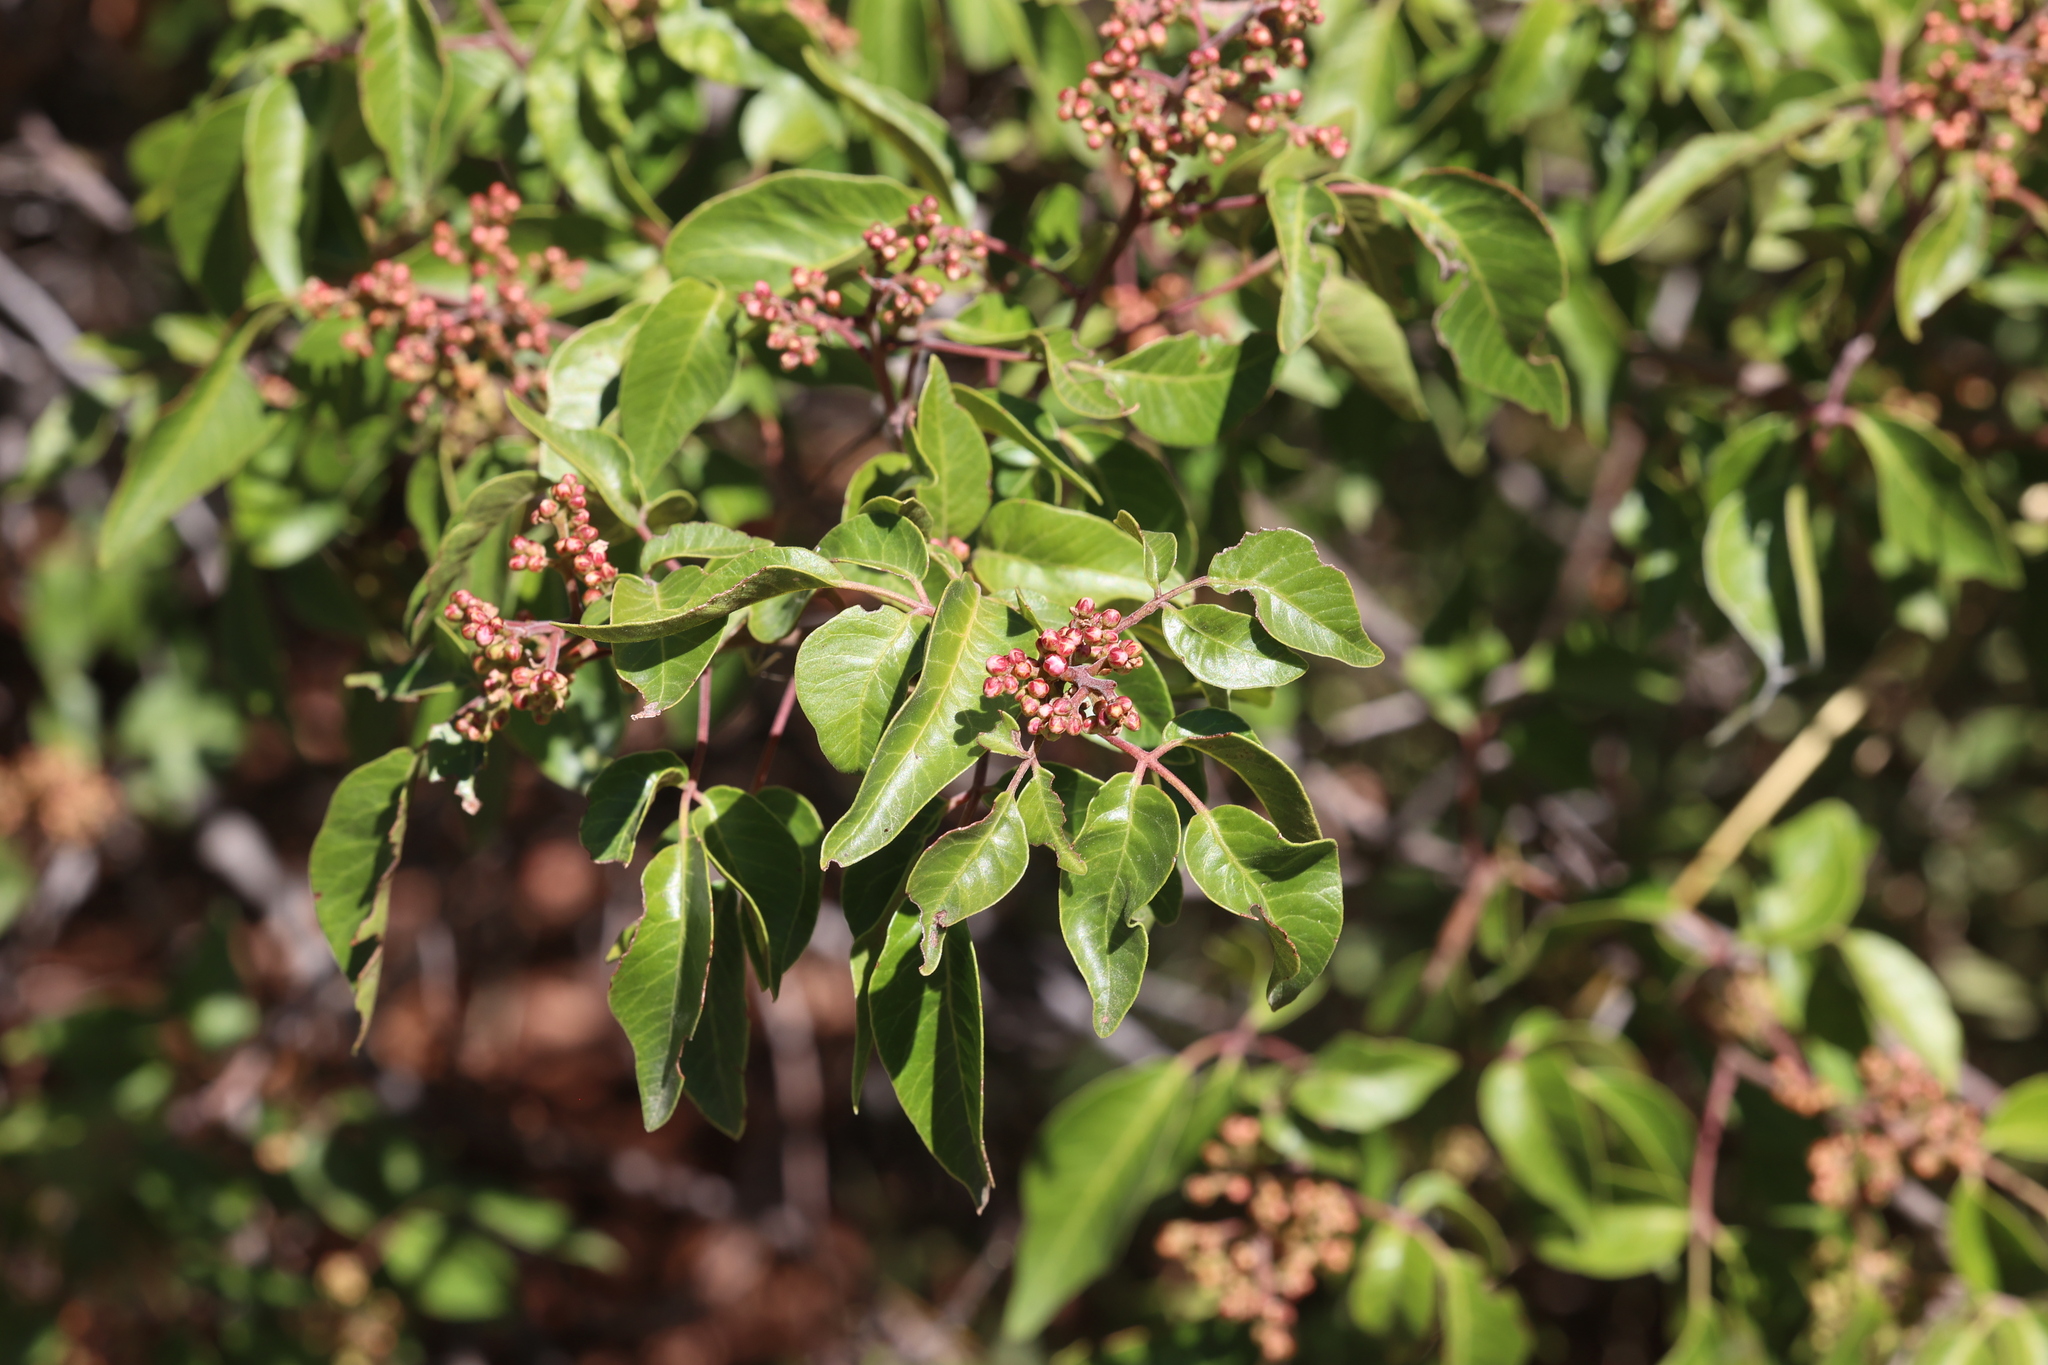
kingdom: Plantae
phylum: Tracheophyta
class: Magnoliopsida
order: Sapindales
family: Anacardiaceae
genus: Rhus
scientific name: Rhus virens
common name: Evergreen sumac
